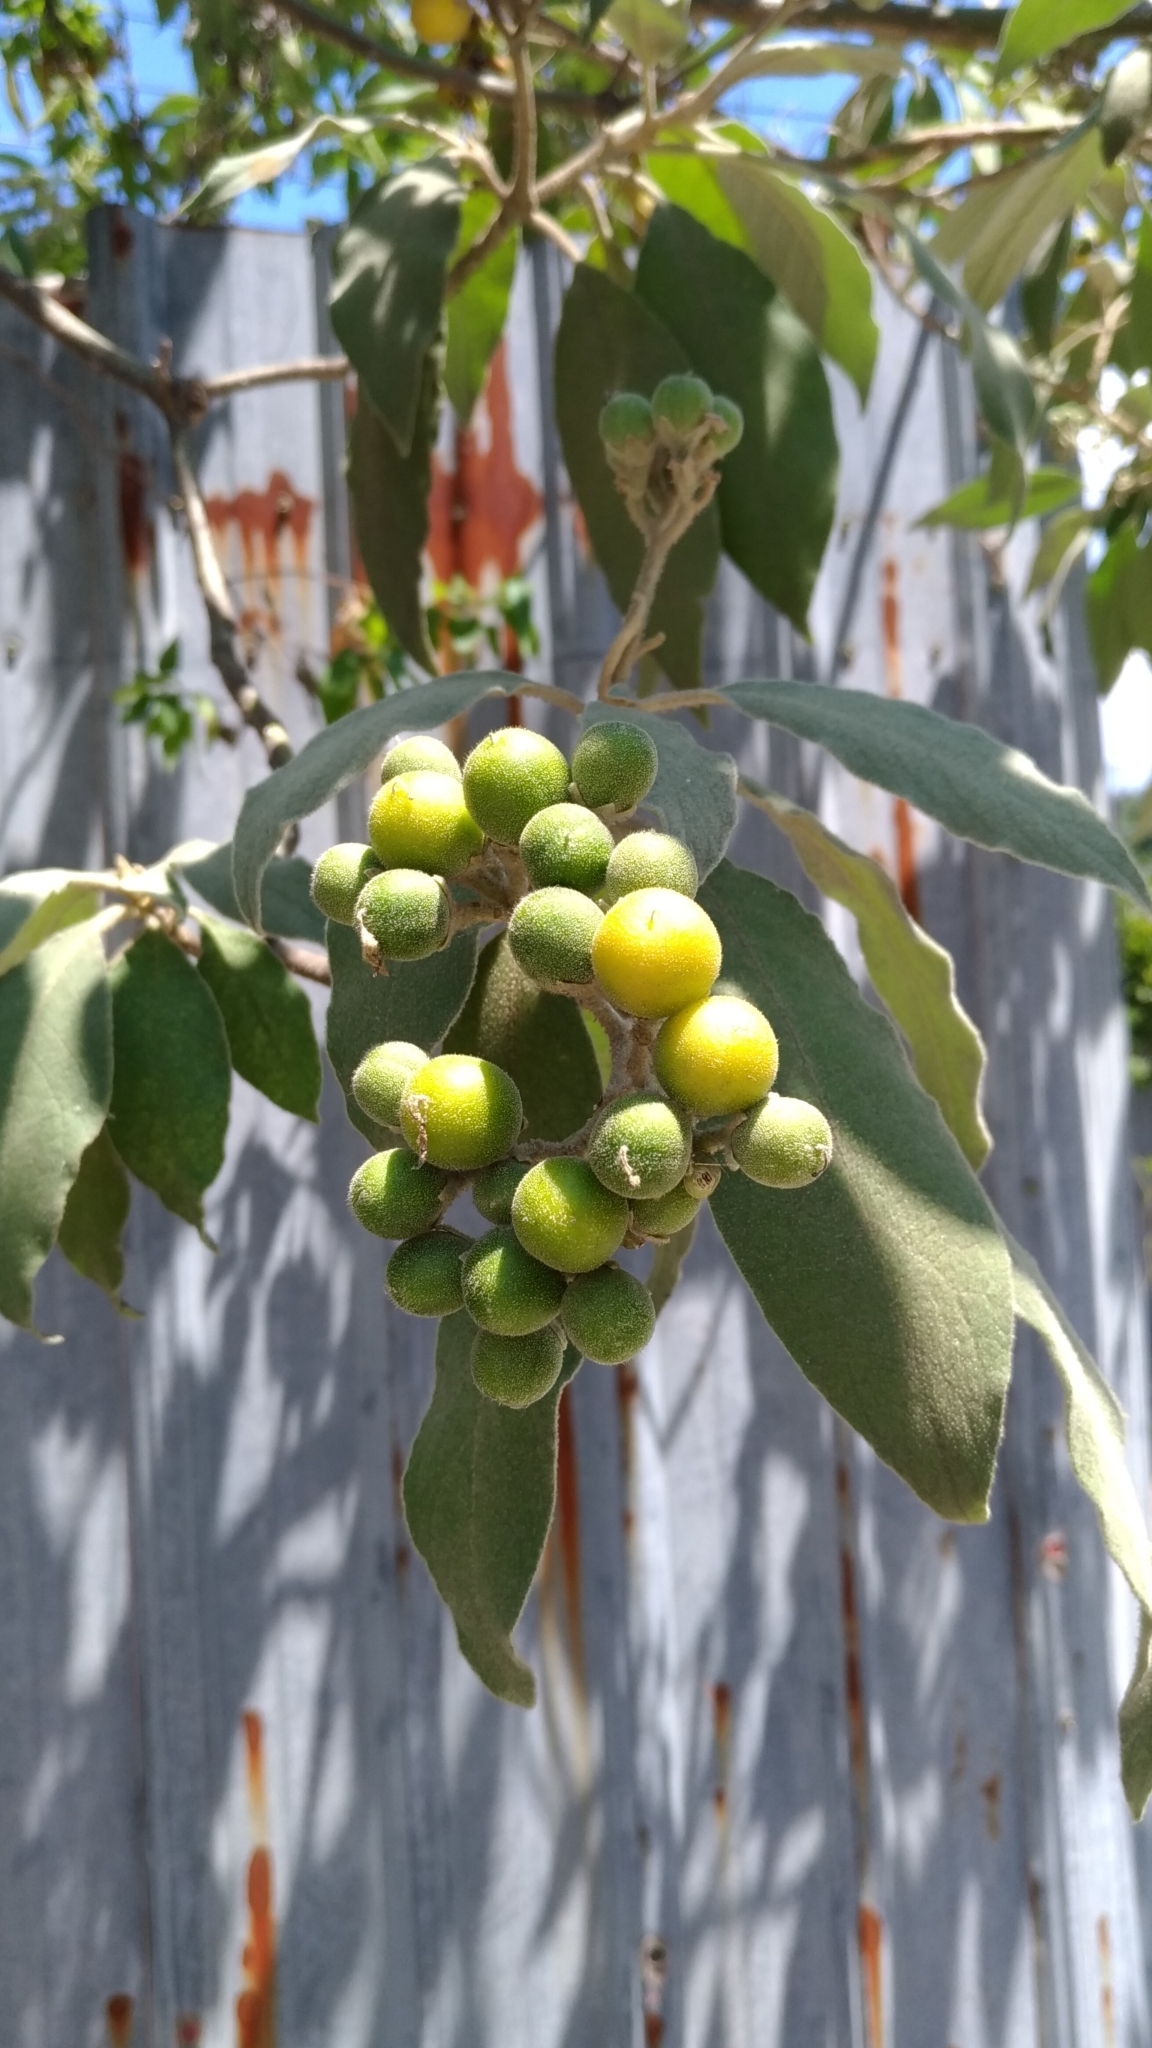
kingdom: Plantae
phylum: Tracheophyta
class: Magnoliopsida
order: Solanales
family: Solanaceae
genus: Solanum
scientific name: Solanum erianthum
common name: Tobacco-tree
